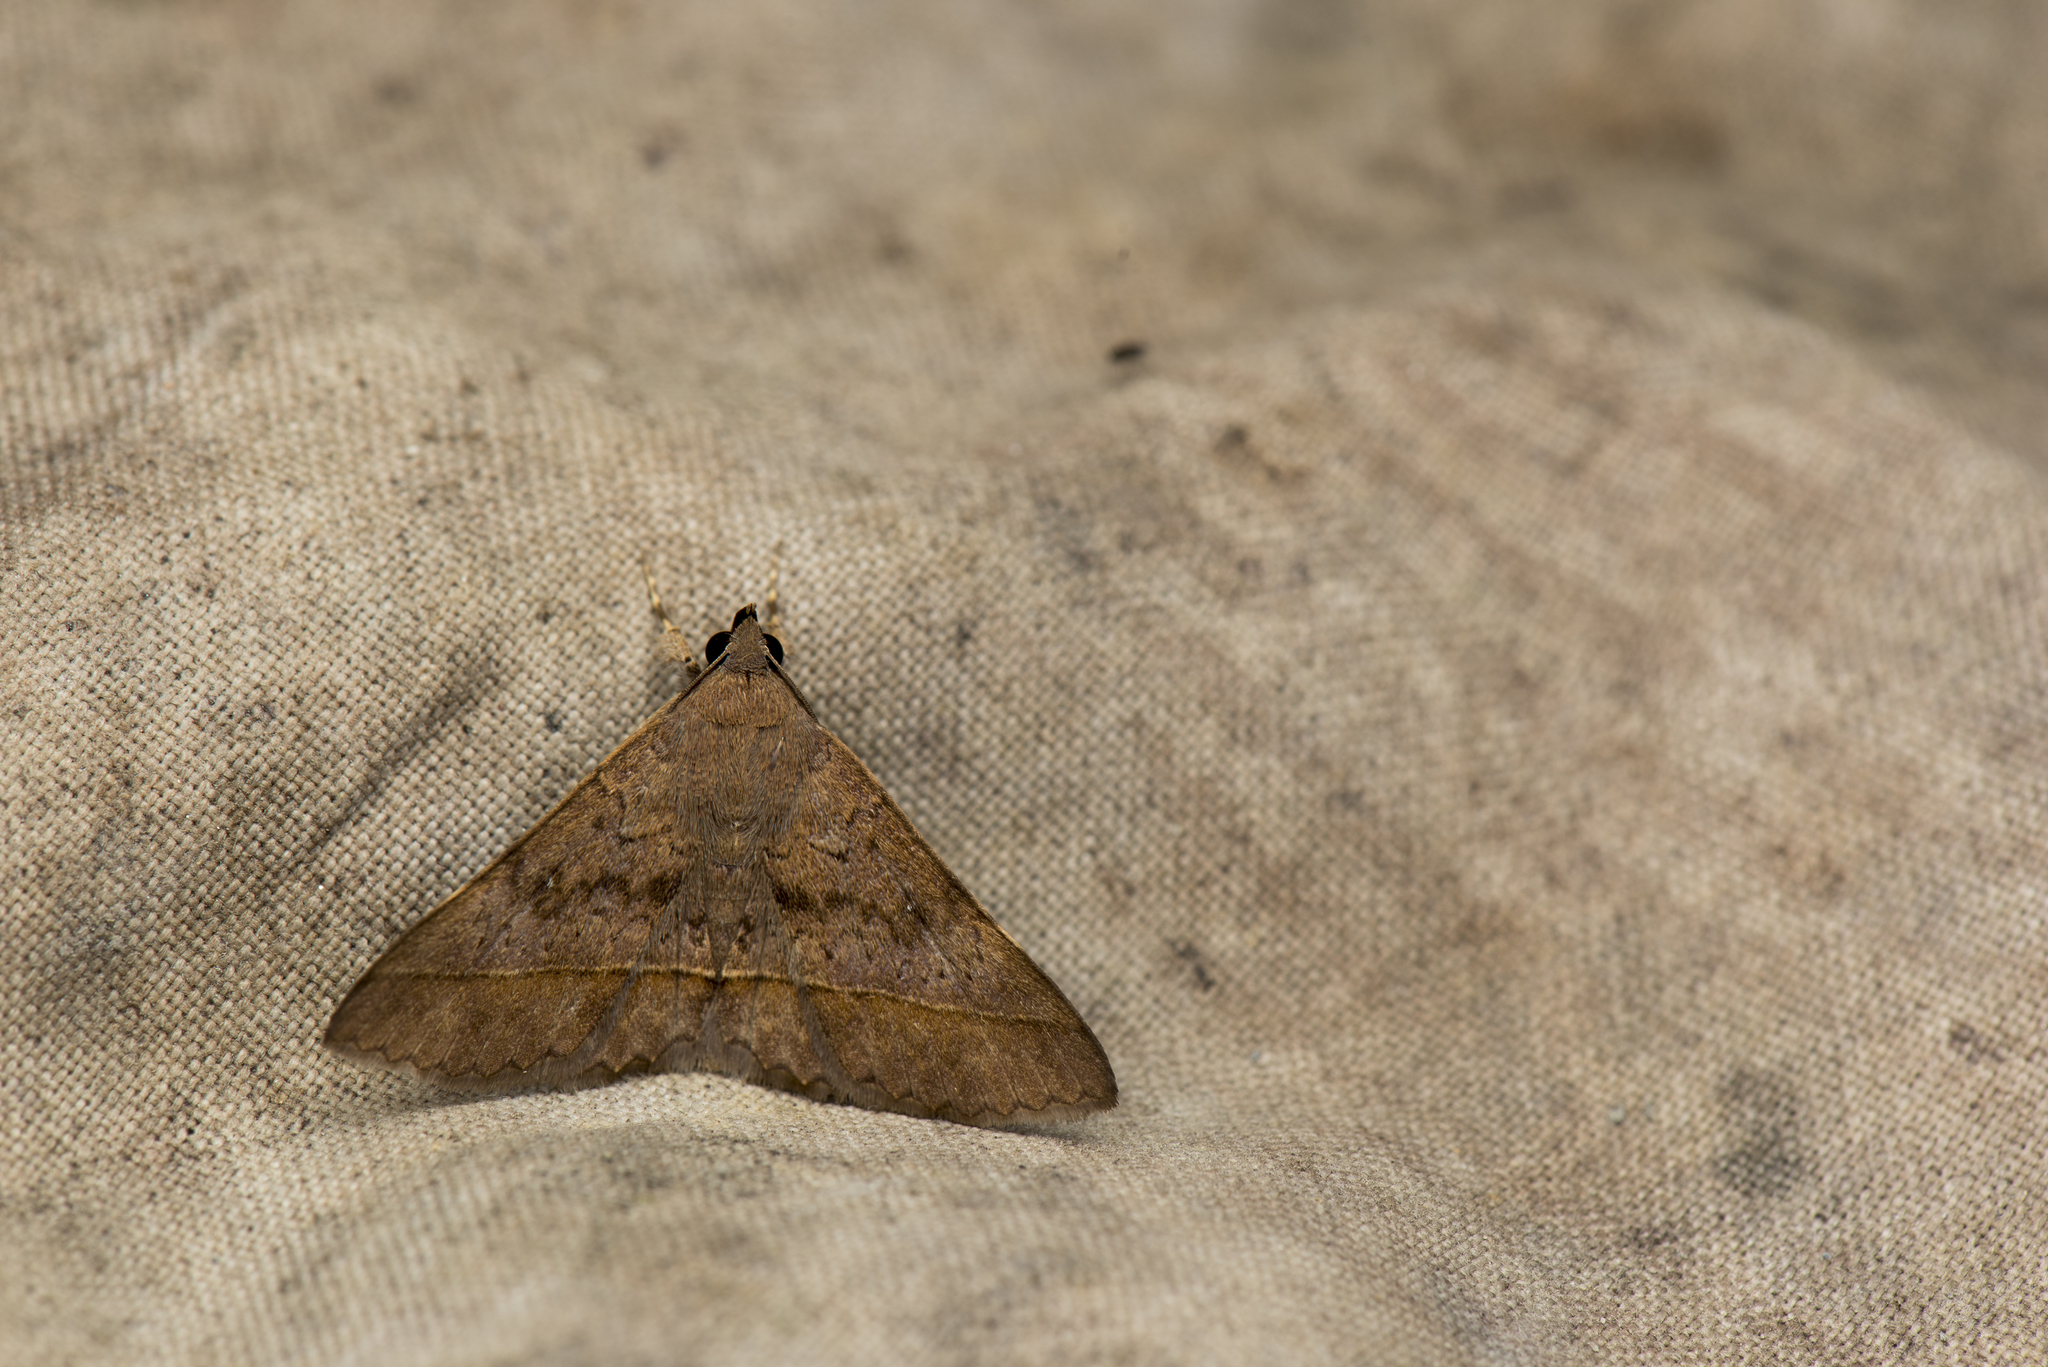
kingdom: Animalia
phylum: Arthropoda
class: Insecta
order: Lepidoptera
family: Erebidae
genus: Hypospila
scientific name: Hypospila bolinoides
